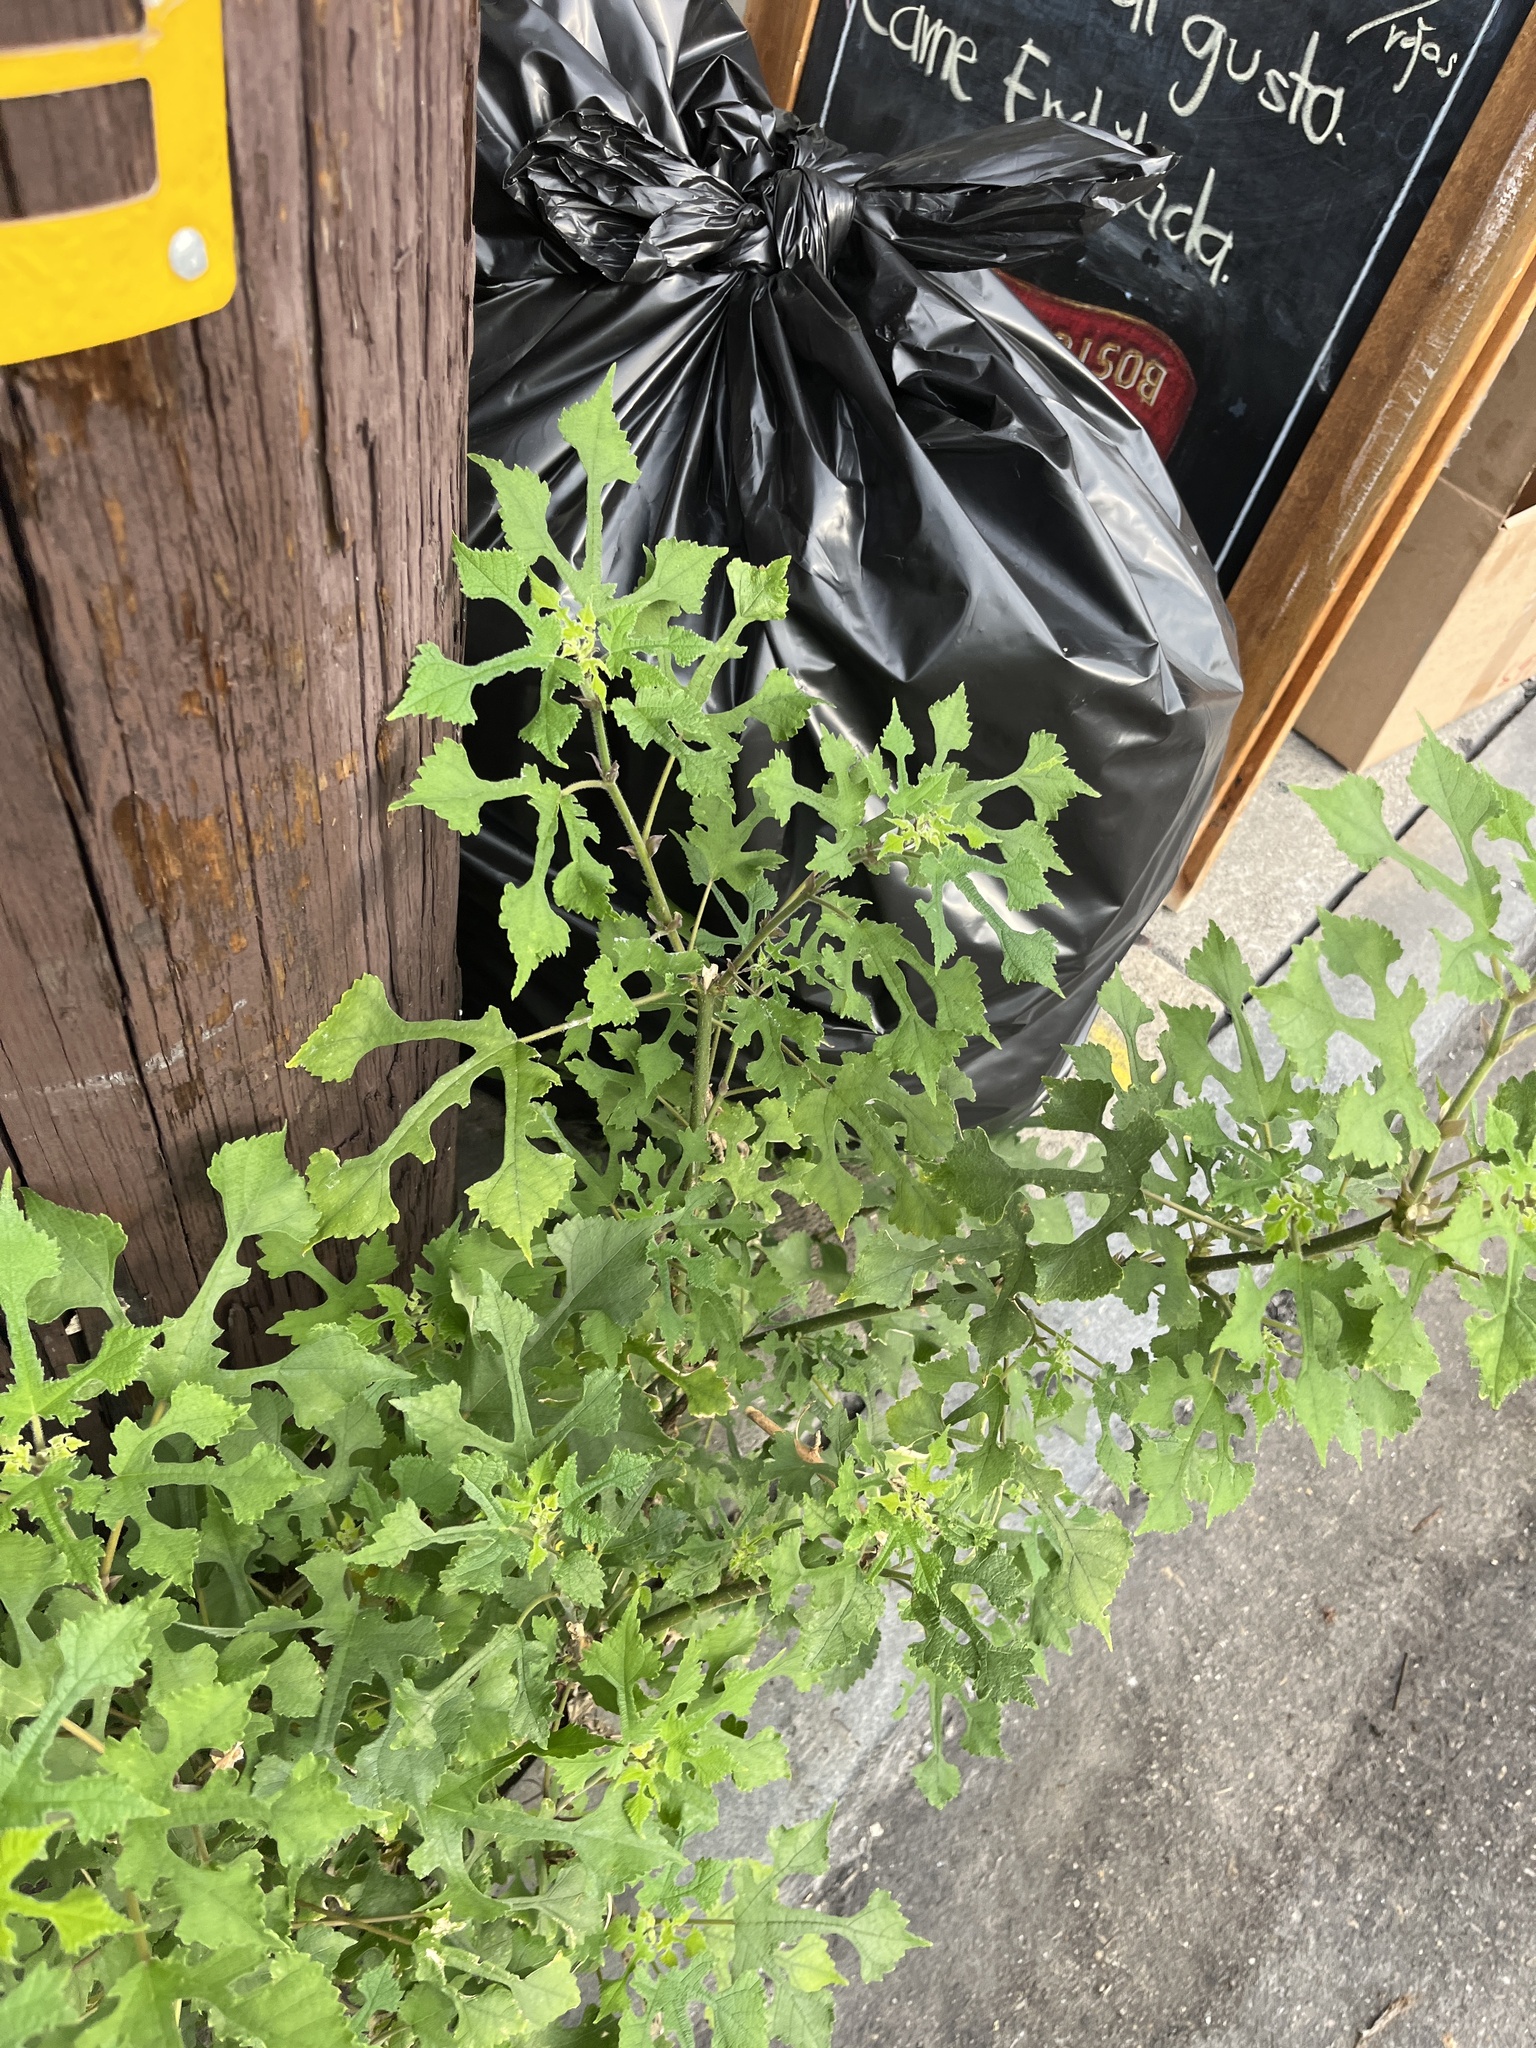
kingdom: Plantae
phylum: Tracheophyta
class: Magnoliopsida
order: Rosales
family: Moraceae
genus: Broussonetia
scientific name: Broussonetia papyrifera
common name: Paper mulberry
